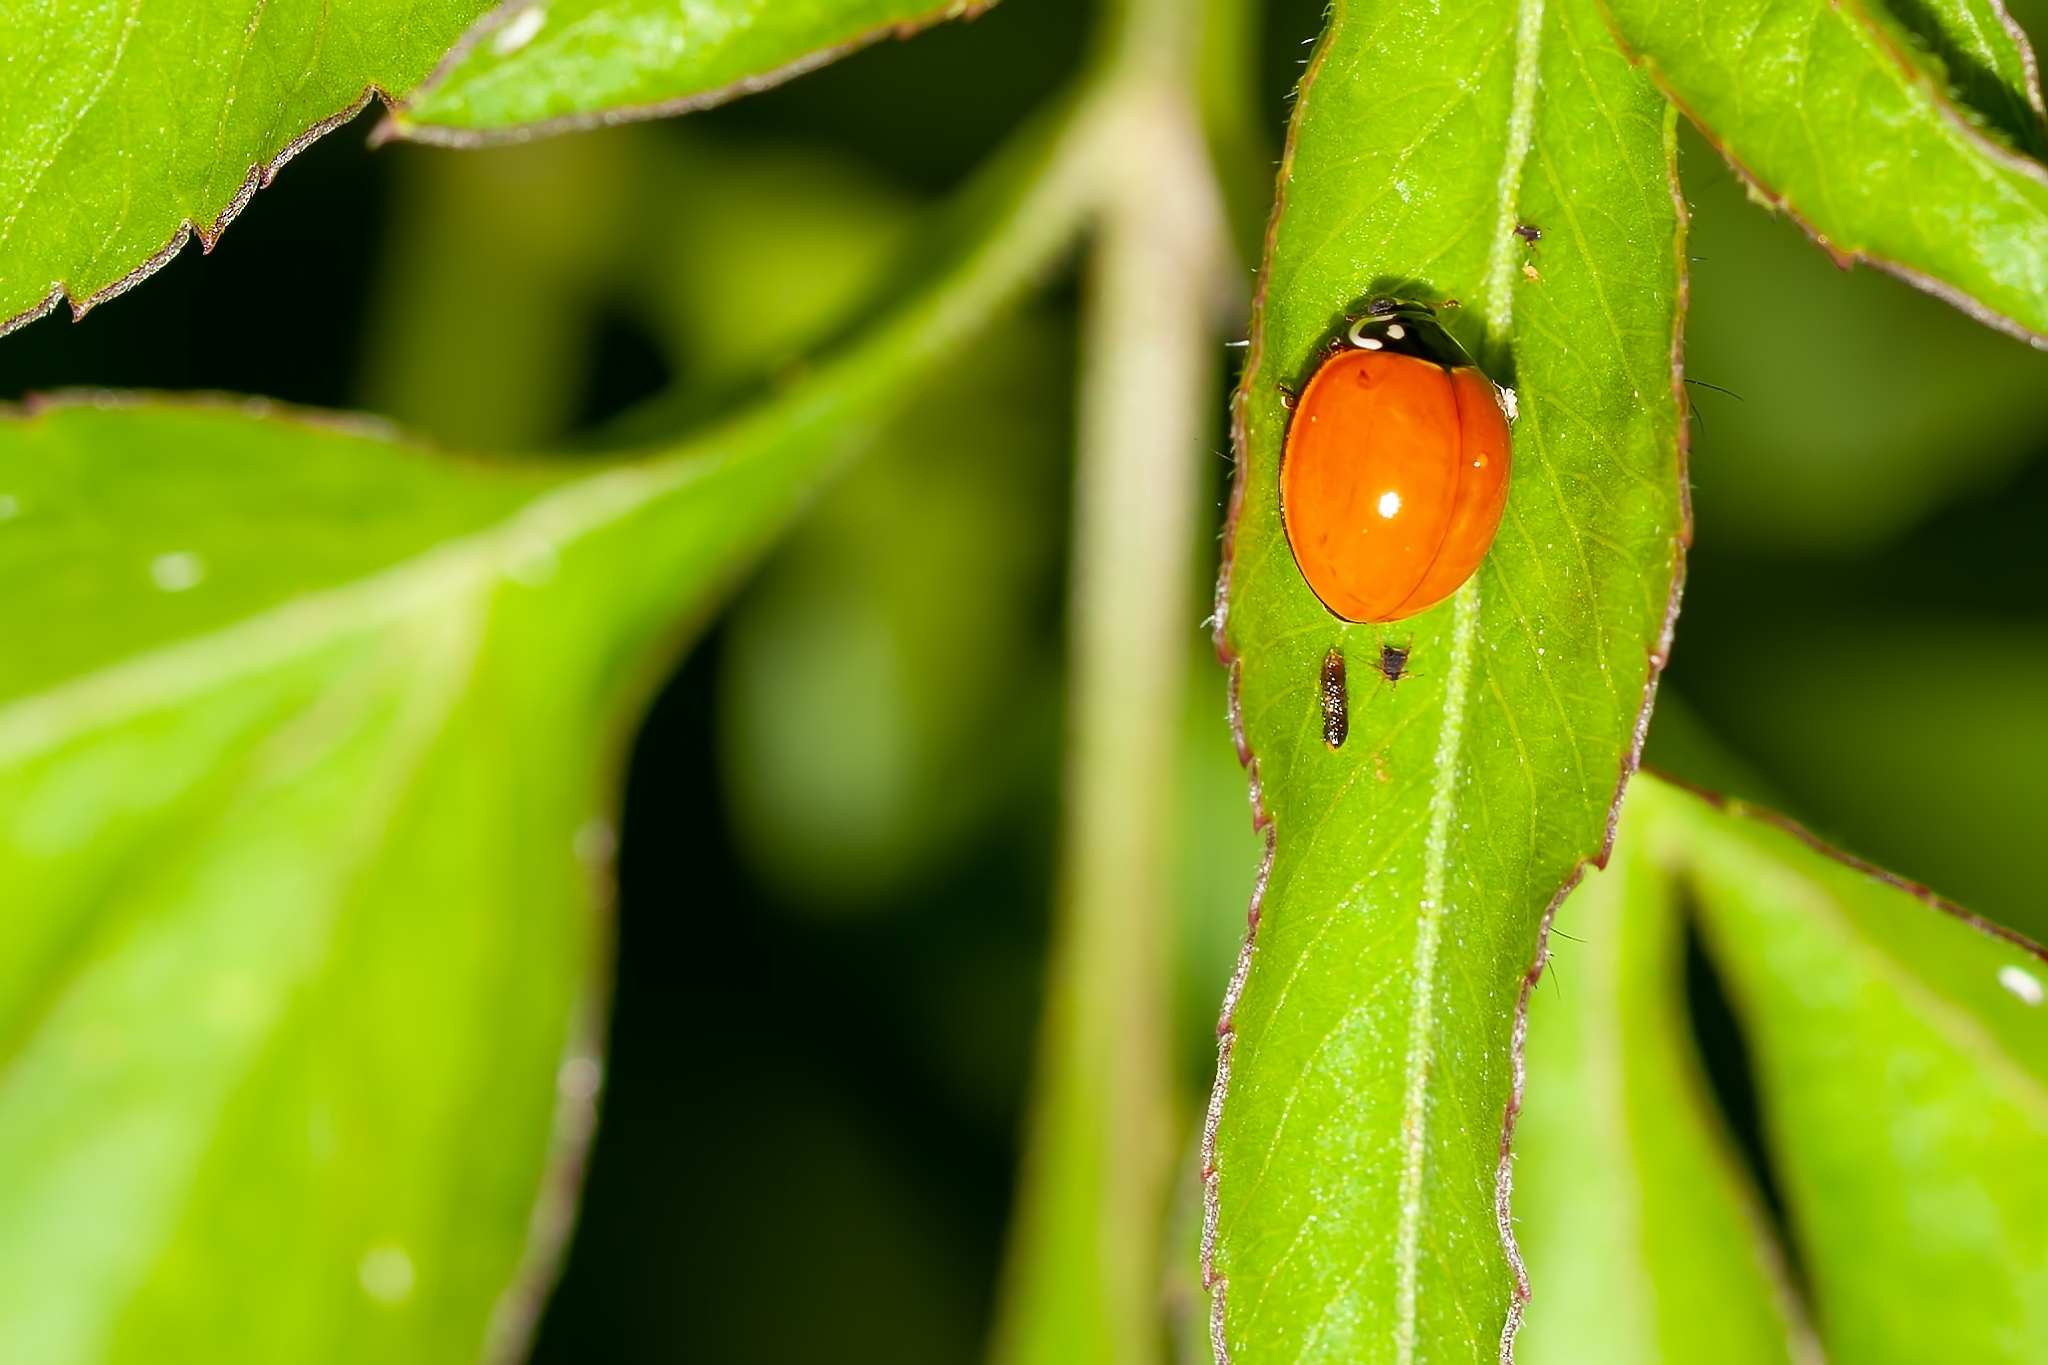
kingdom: Animalia
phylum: Arthropoda
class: Insecta
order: Coleoptera
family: Coccinellidae
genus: Cycloneda
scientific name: Cycloneda sanguinea
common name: Ladybird beetle
